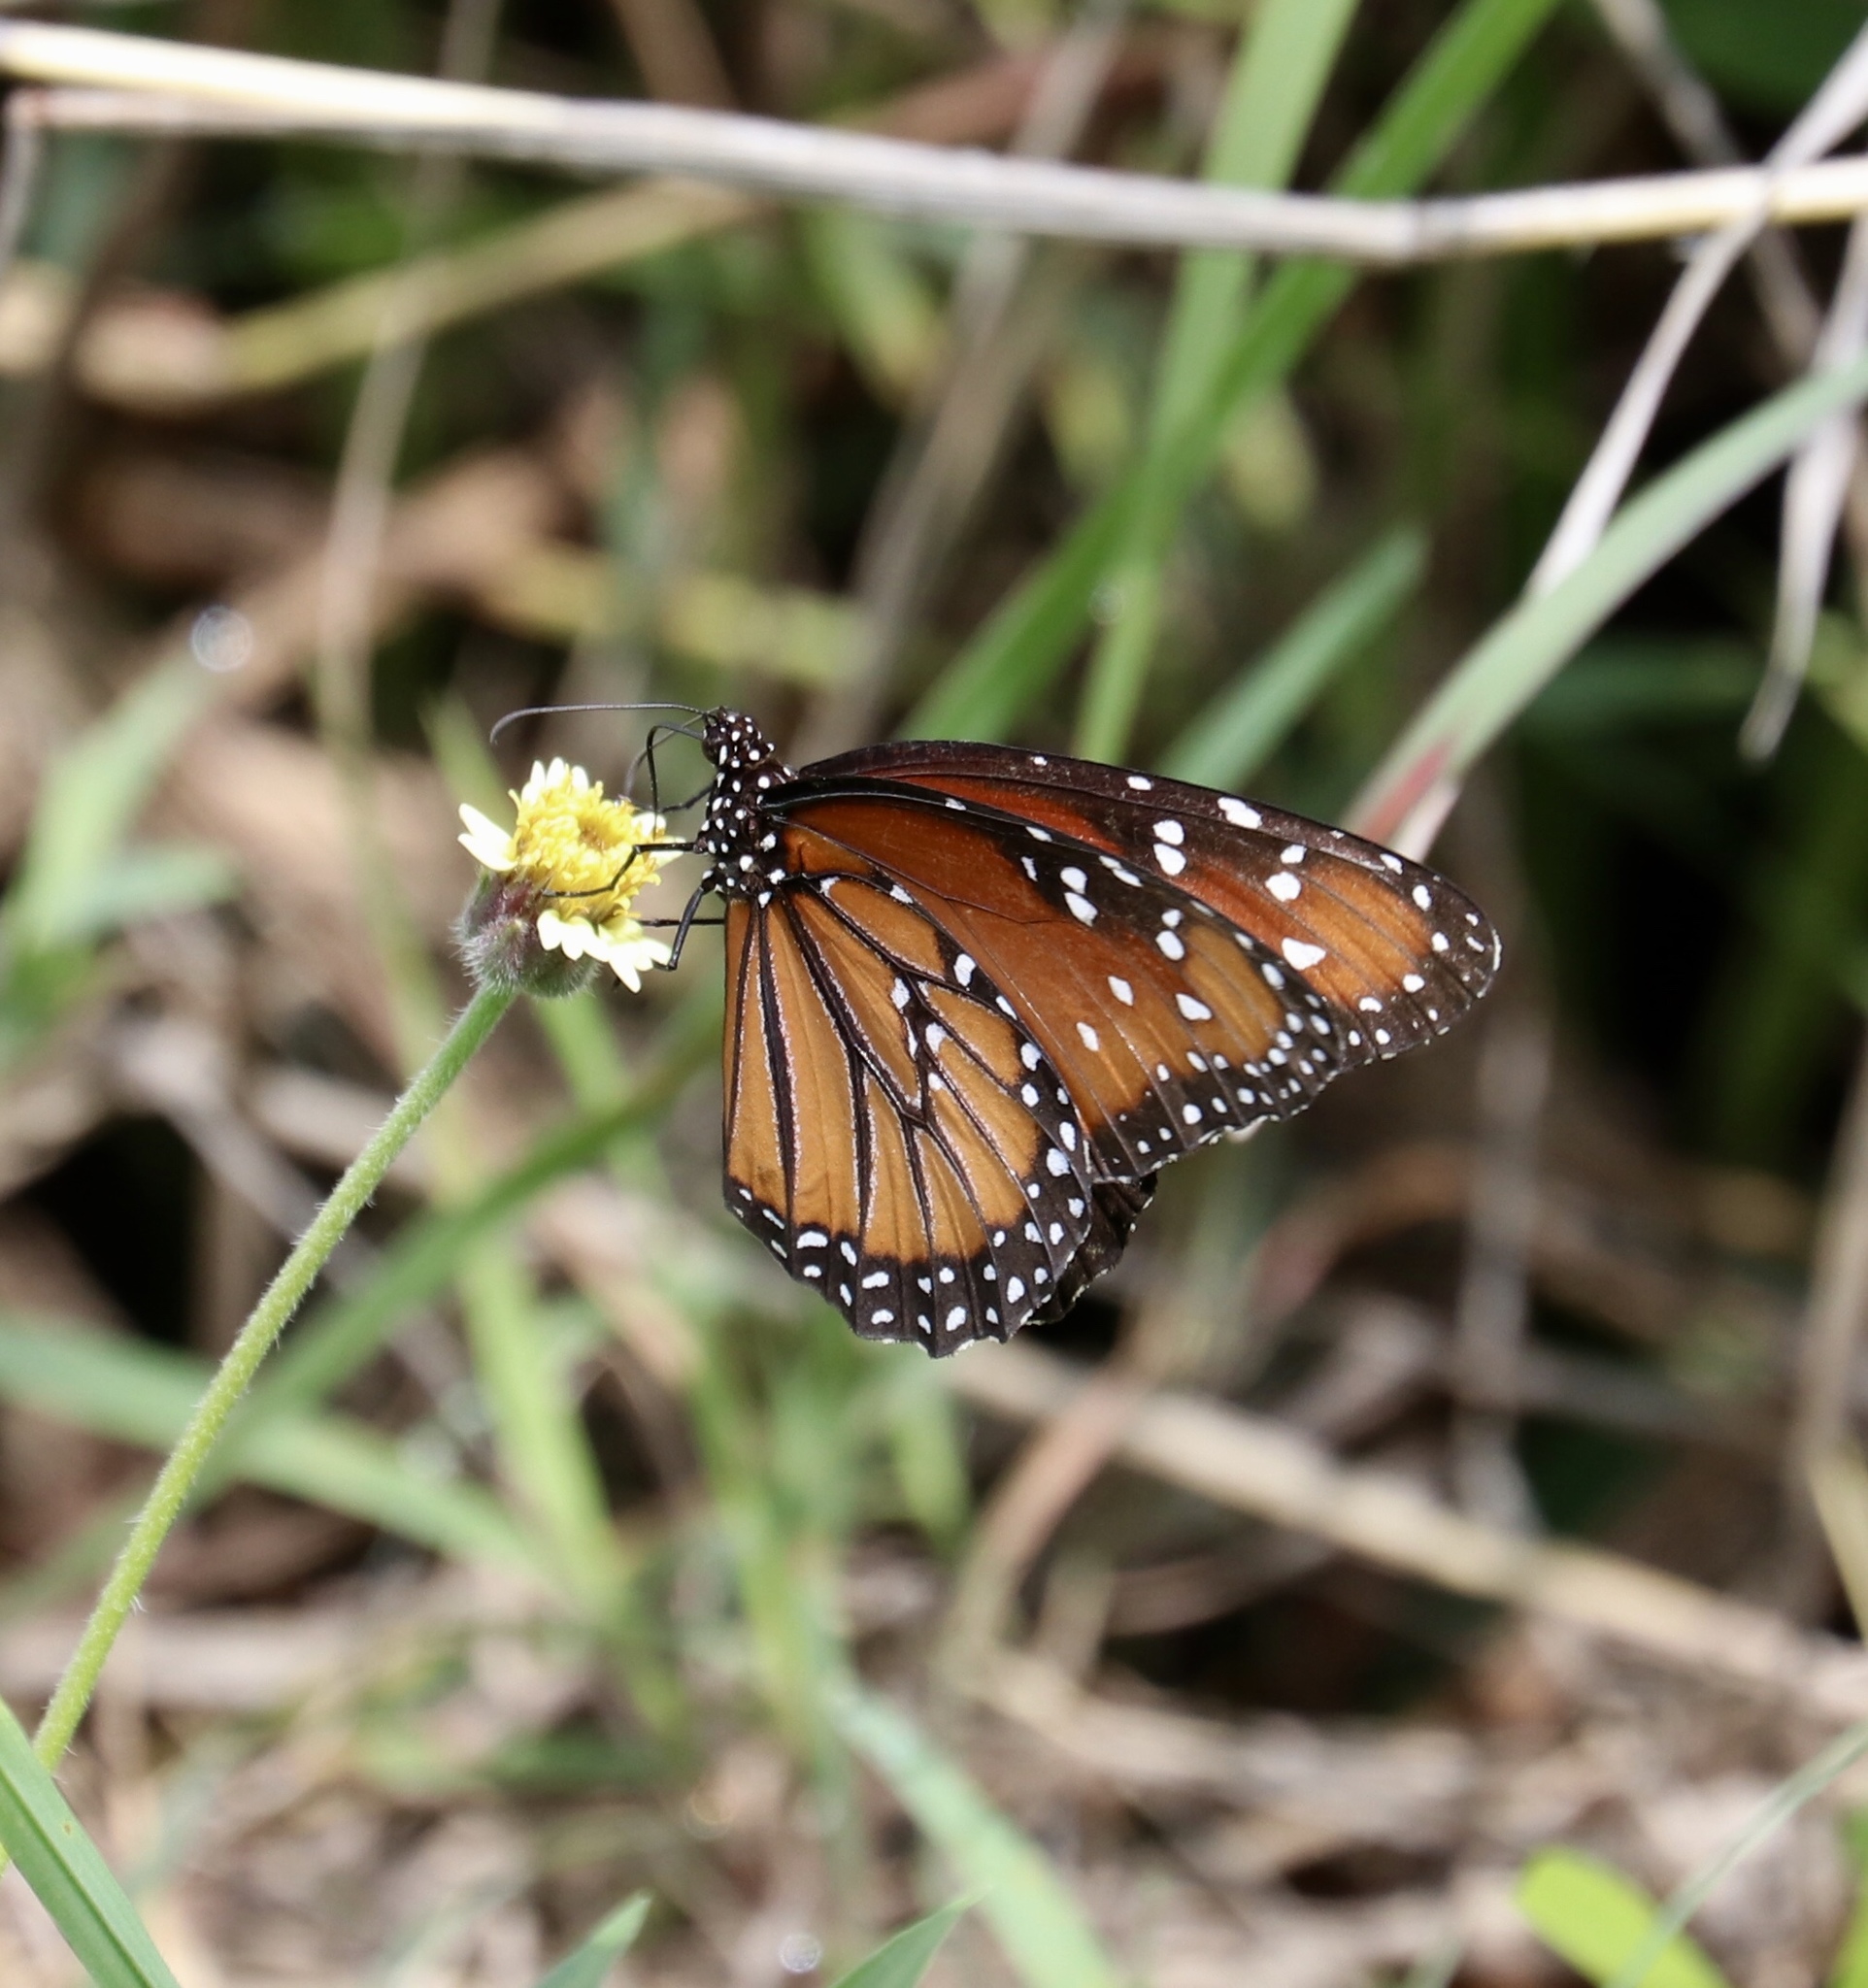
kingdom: Animalia
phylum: Arthropoda
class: Insecta
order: Lepidoptera
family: Nymphalidae
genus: Danaus
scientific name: Danaus gilippus
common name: Queen
